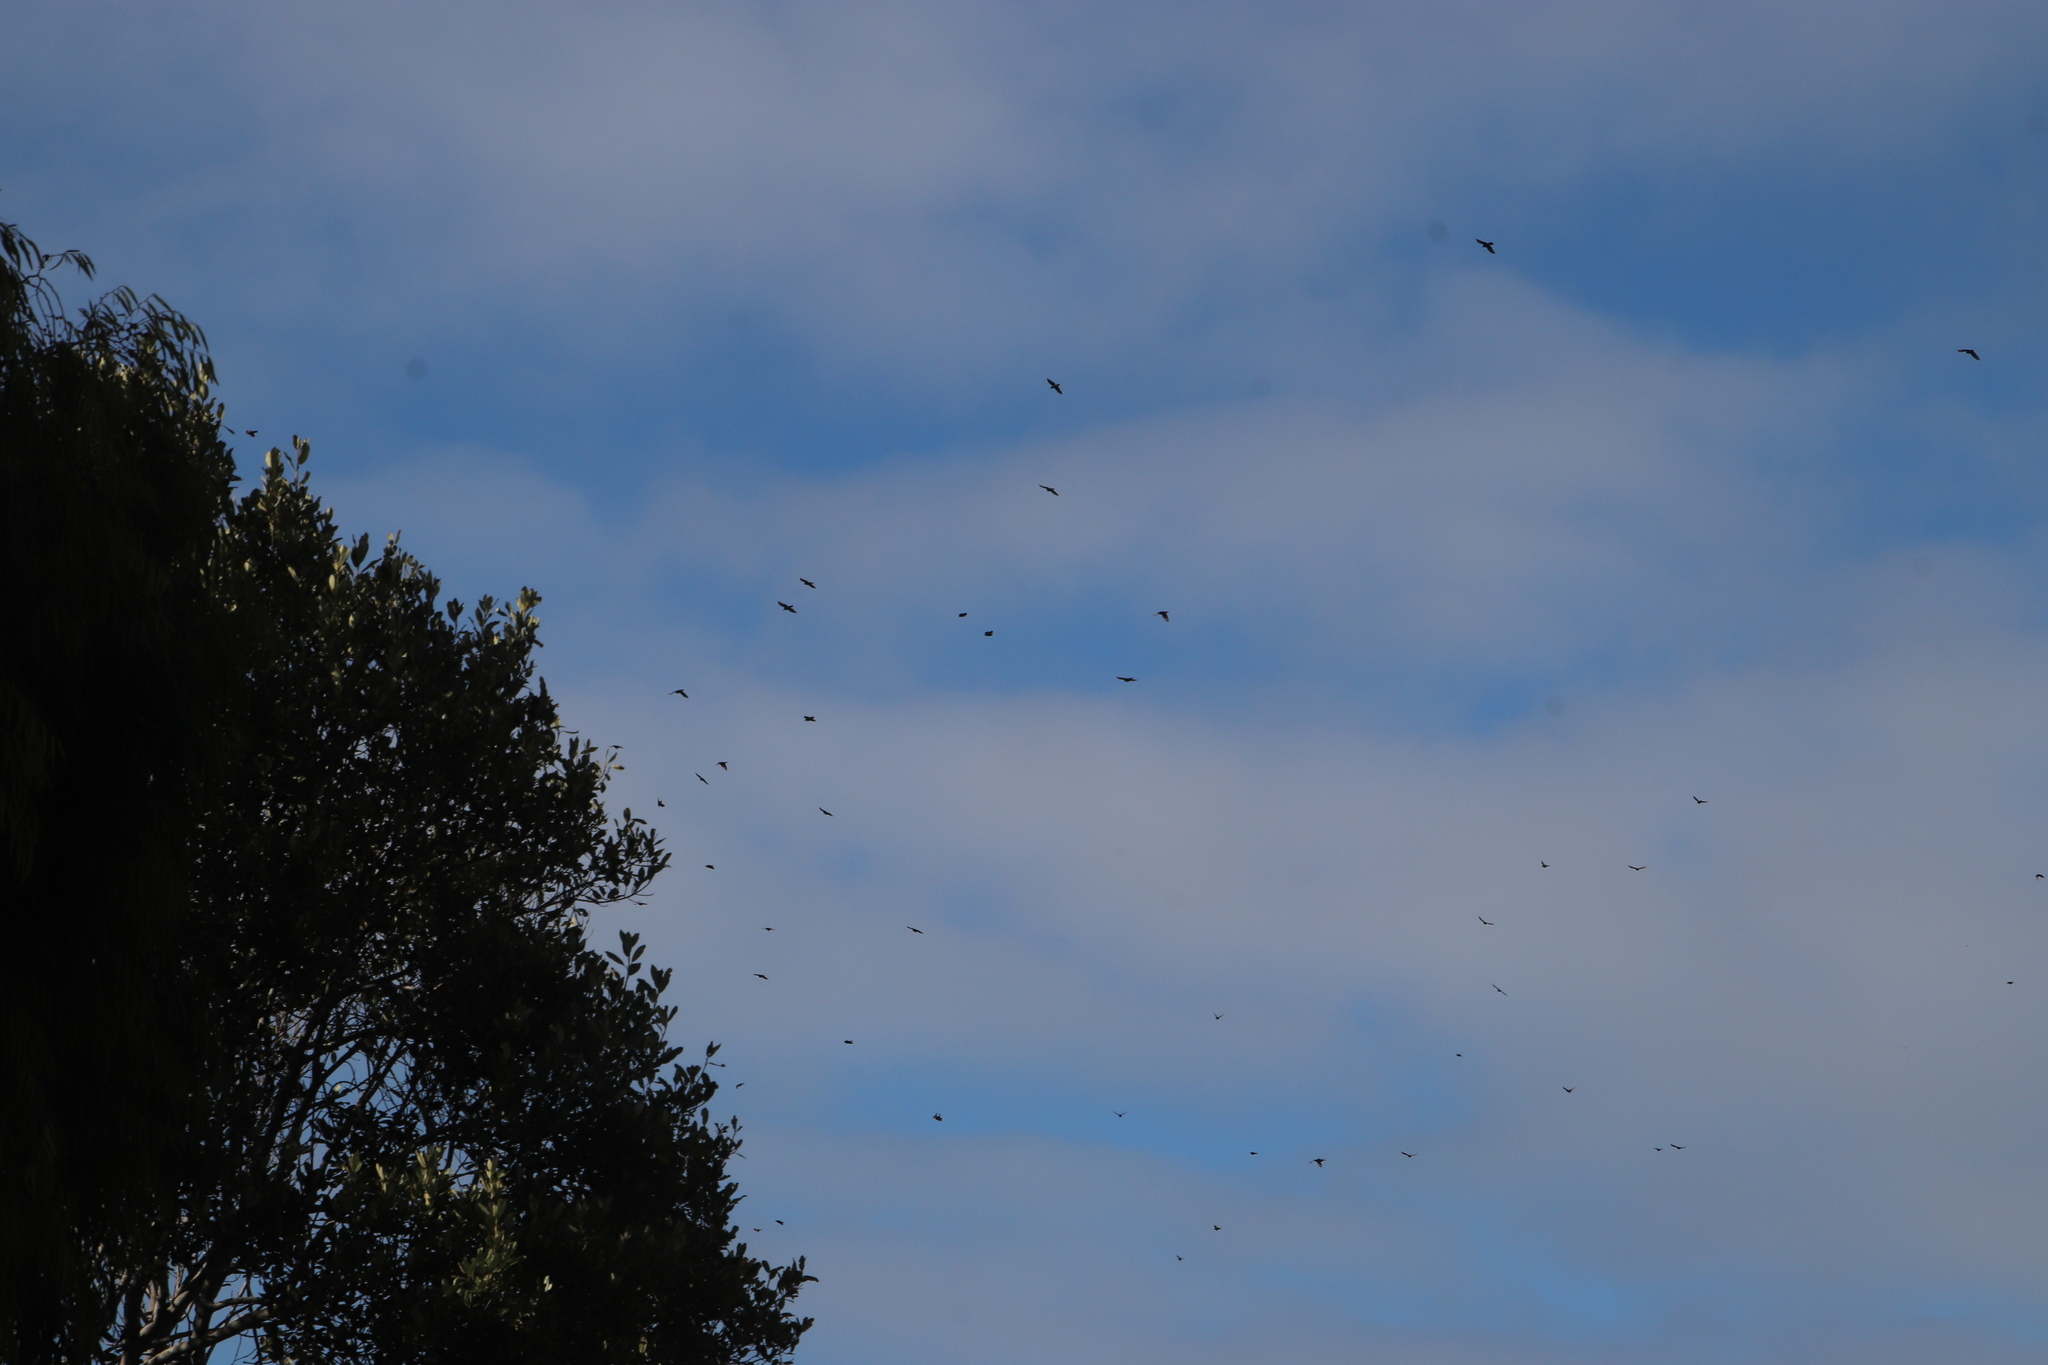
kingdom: Animalia
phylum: Chordata
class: Aves
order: Passeriformes
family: Sturnidae
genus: Onychognathus
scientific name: Onychognathus morio
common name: Red-winged starling
